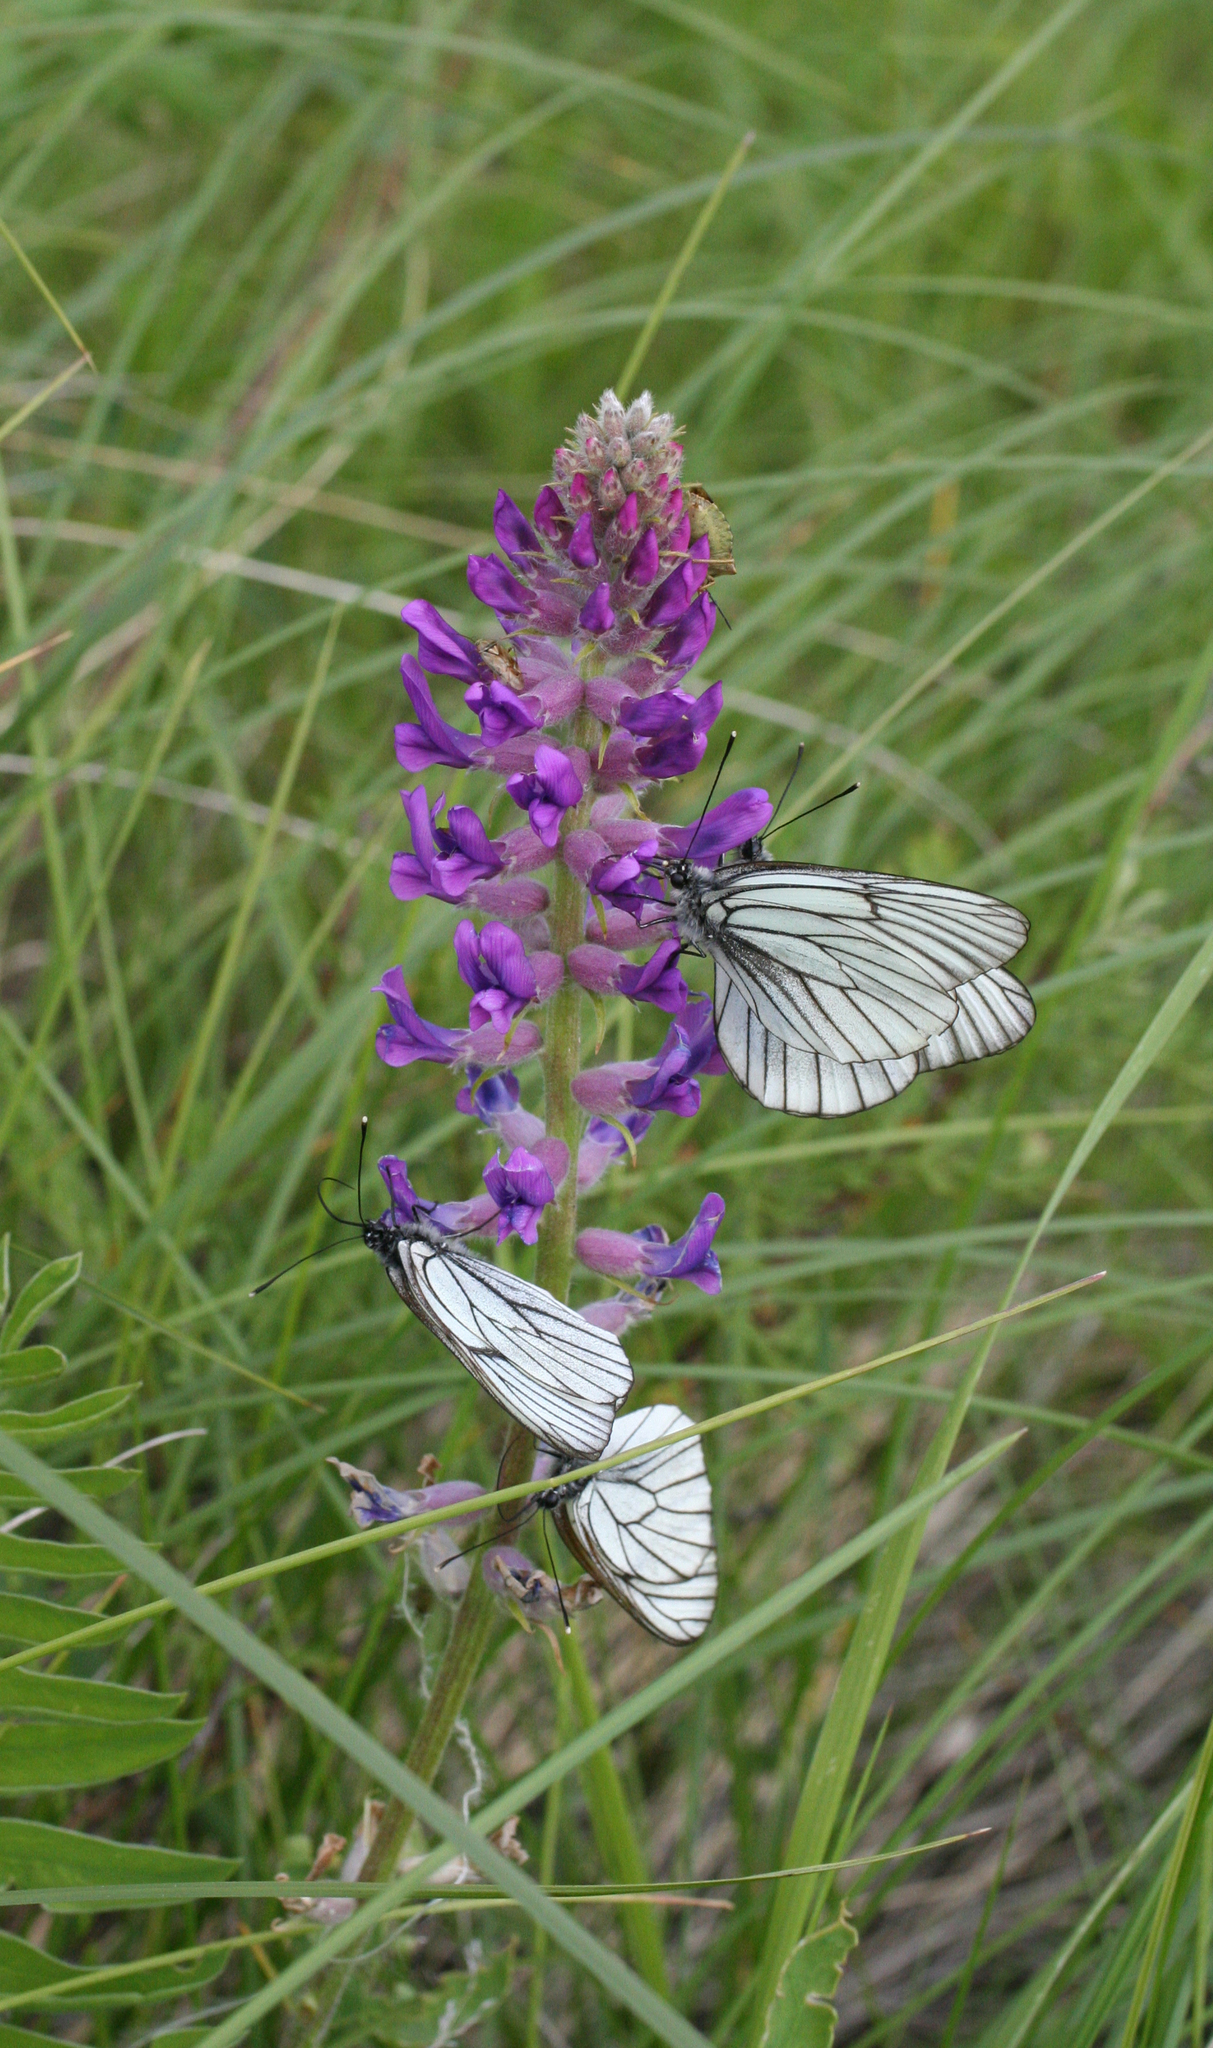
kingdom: Animalia
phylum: Arthropoda
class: Insecta
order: Lepidoptera
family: Pieridae
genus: Aporia
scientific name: Aporia crataegi
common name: Black-veined white
